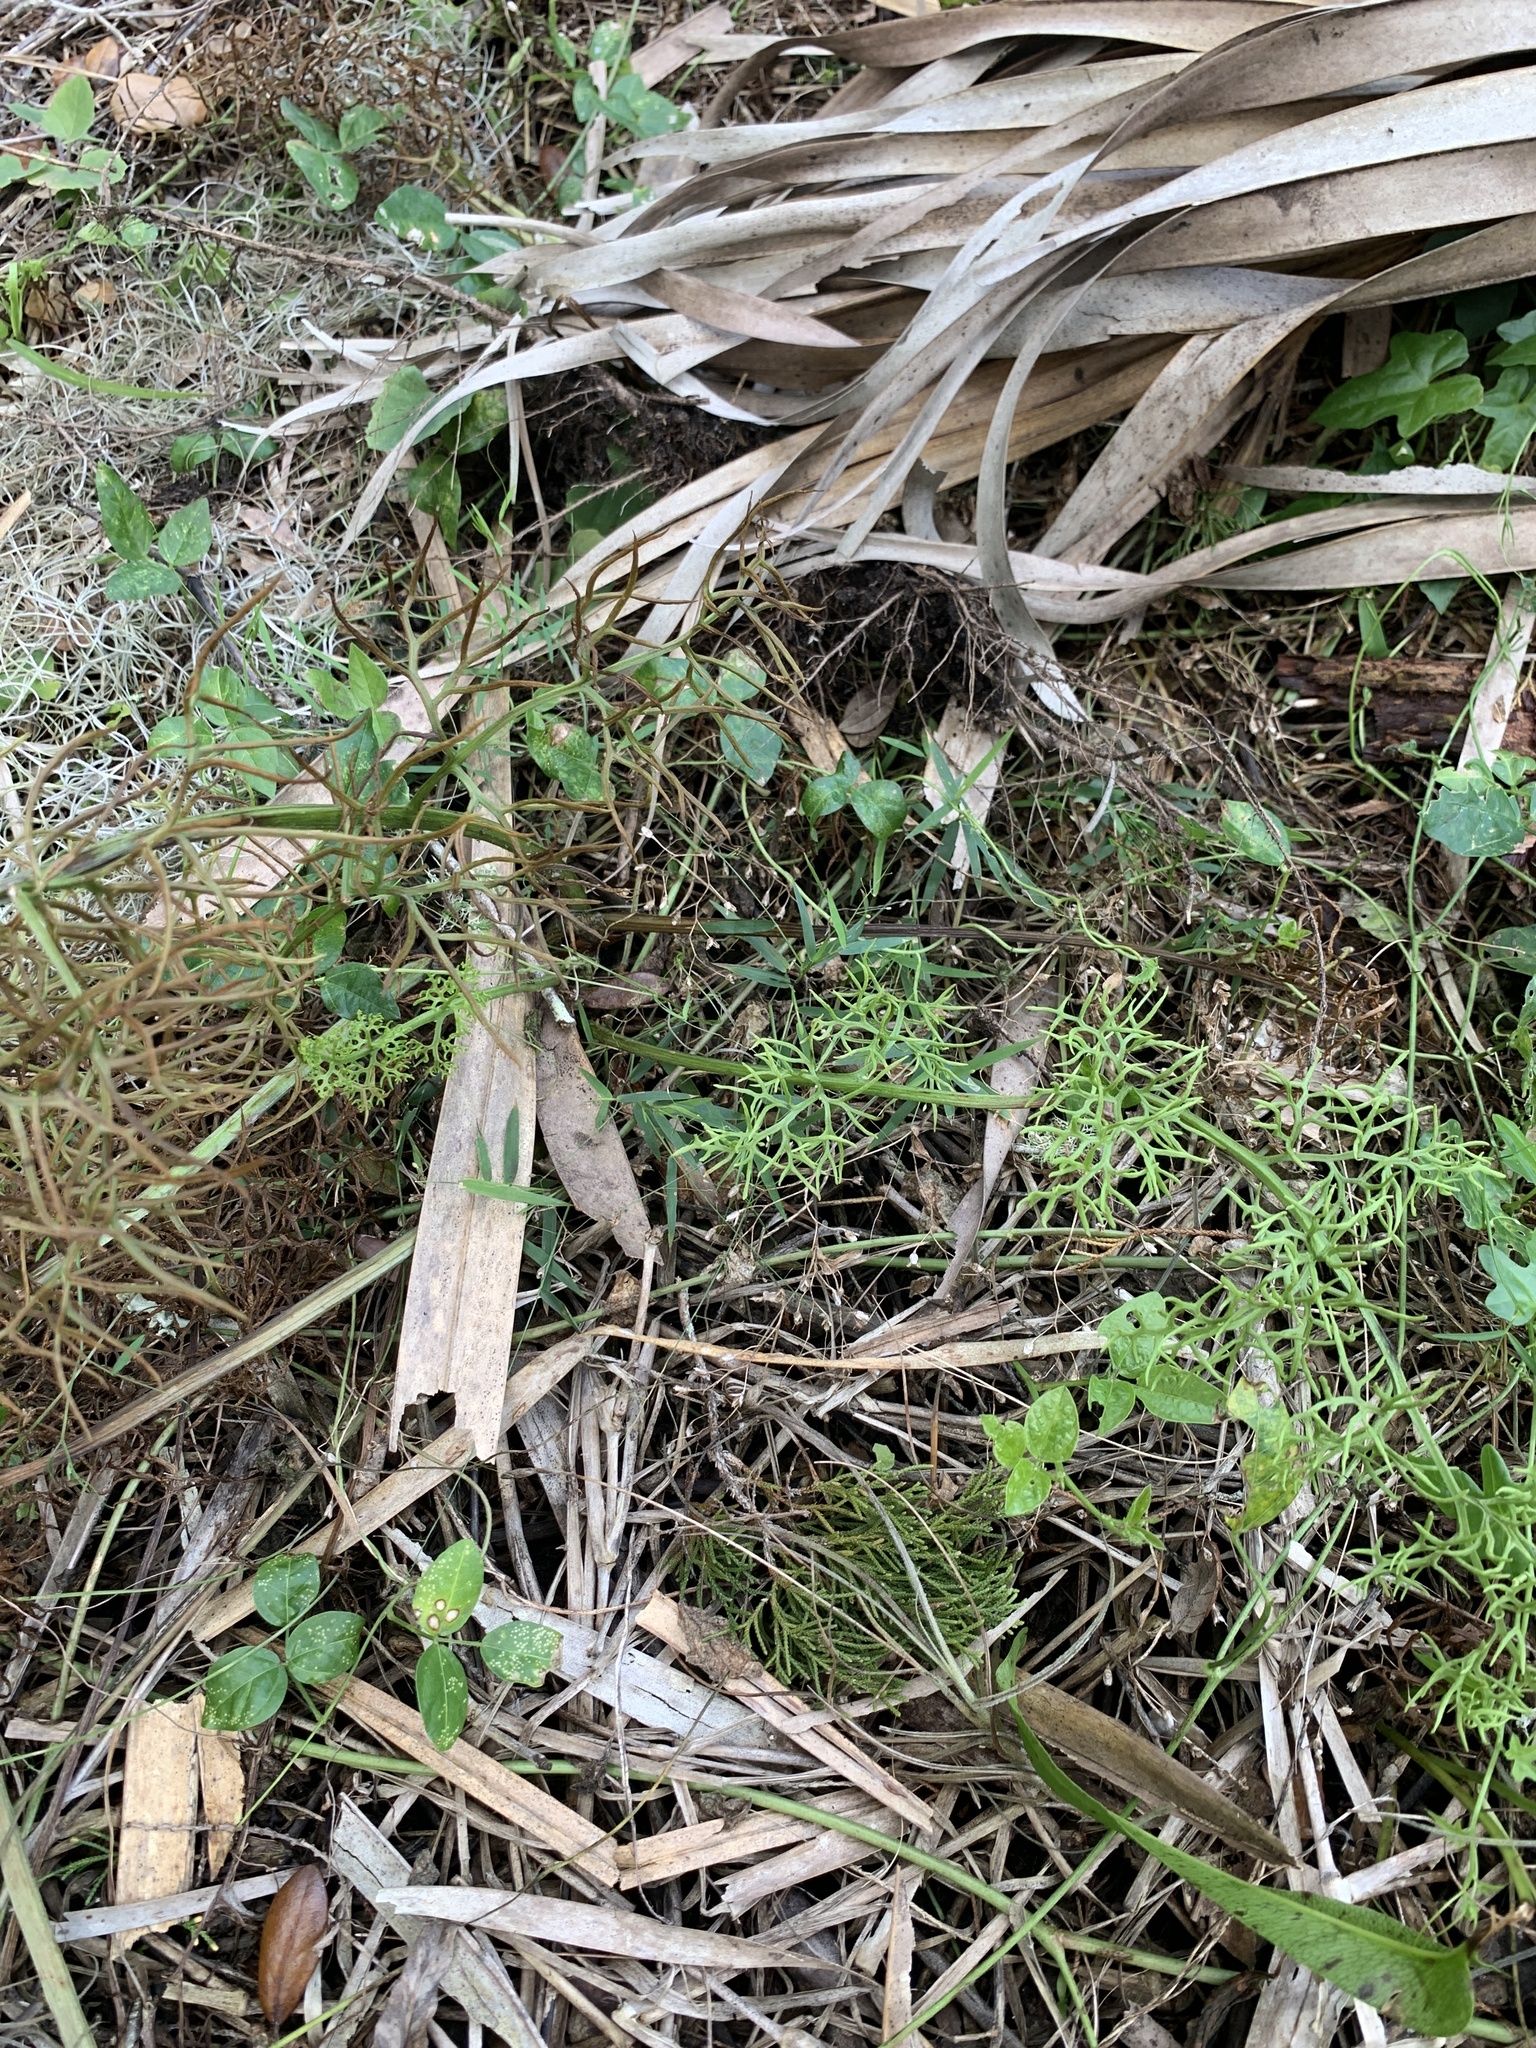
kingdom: Plantae
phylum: Tracheophyta
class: Polypodiopsida
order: Polypodiales
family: Pteridaceae
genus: Ceratopteris
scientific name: Ceratopteris thalictroides
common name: Water fern
